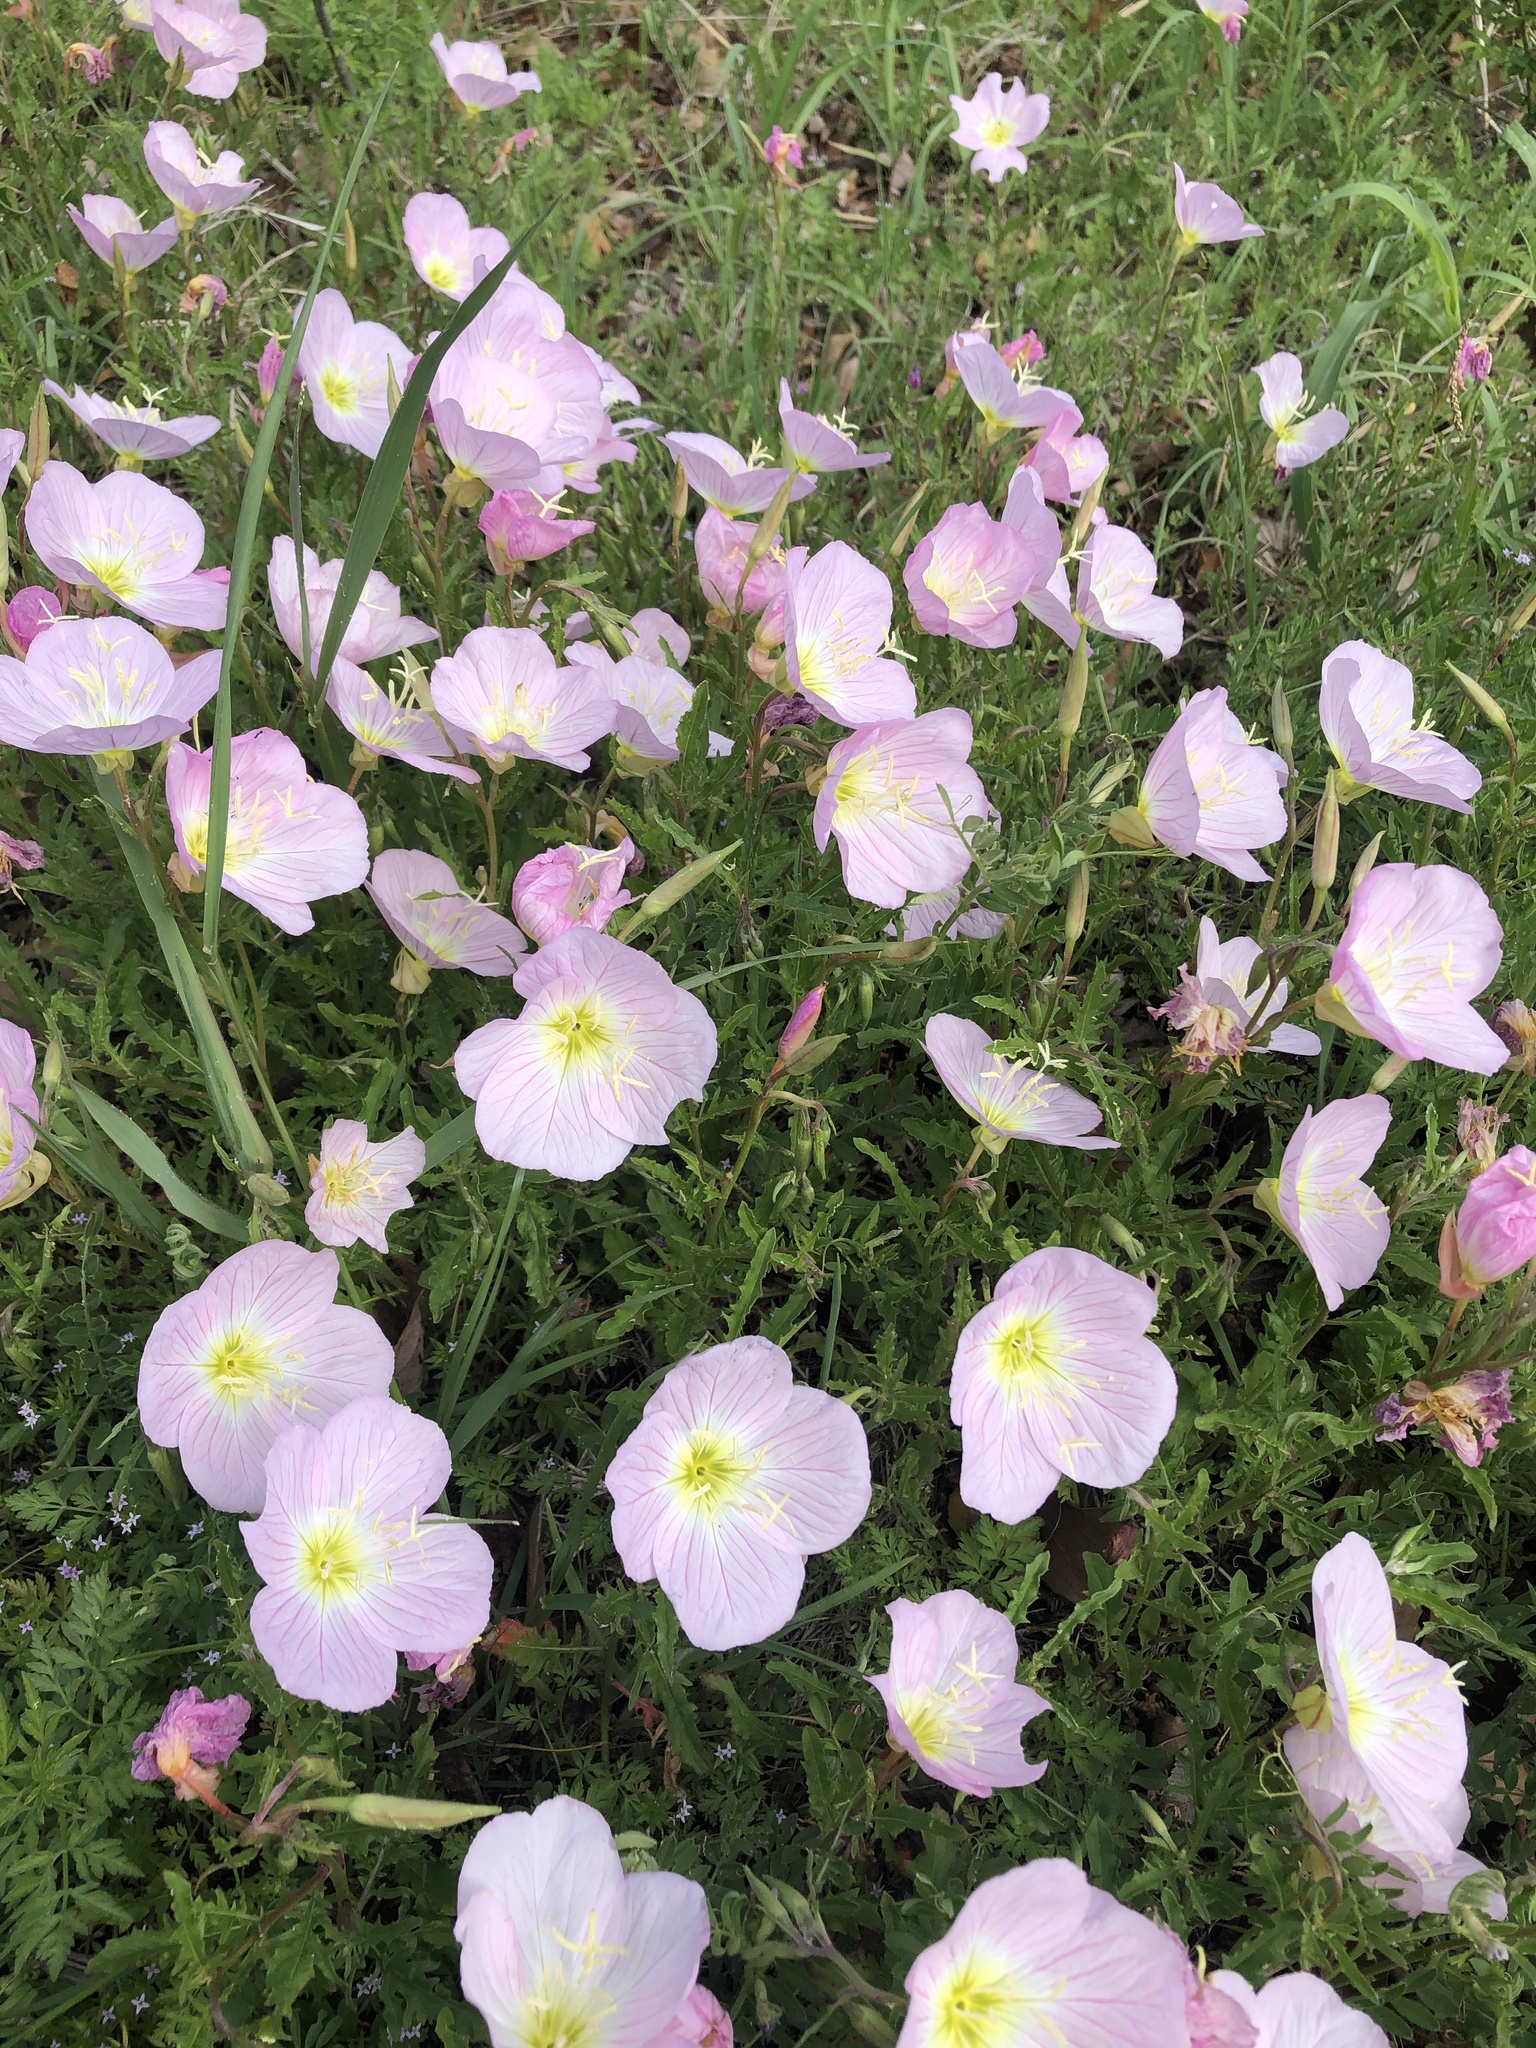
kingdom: Plantae
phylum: Tracheophyta
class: Magnoliopsida
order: Myrtales
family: Onagraceae
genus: Oenothera
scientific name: Oenothera speciosa
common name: White evening-primrose
